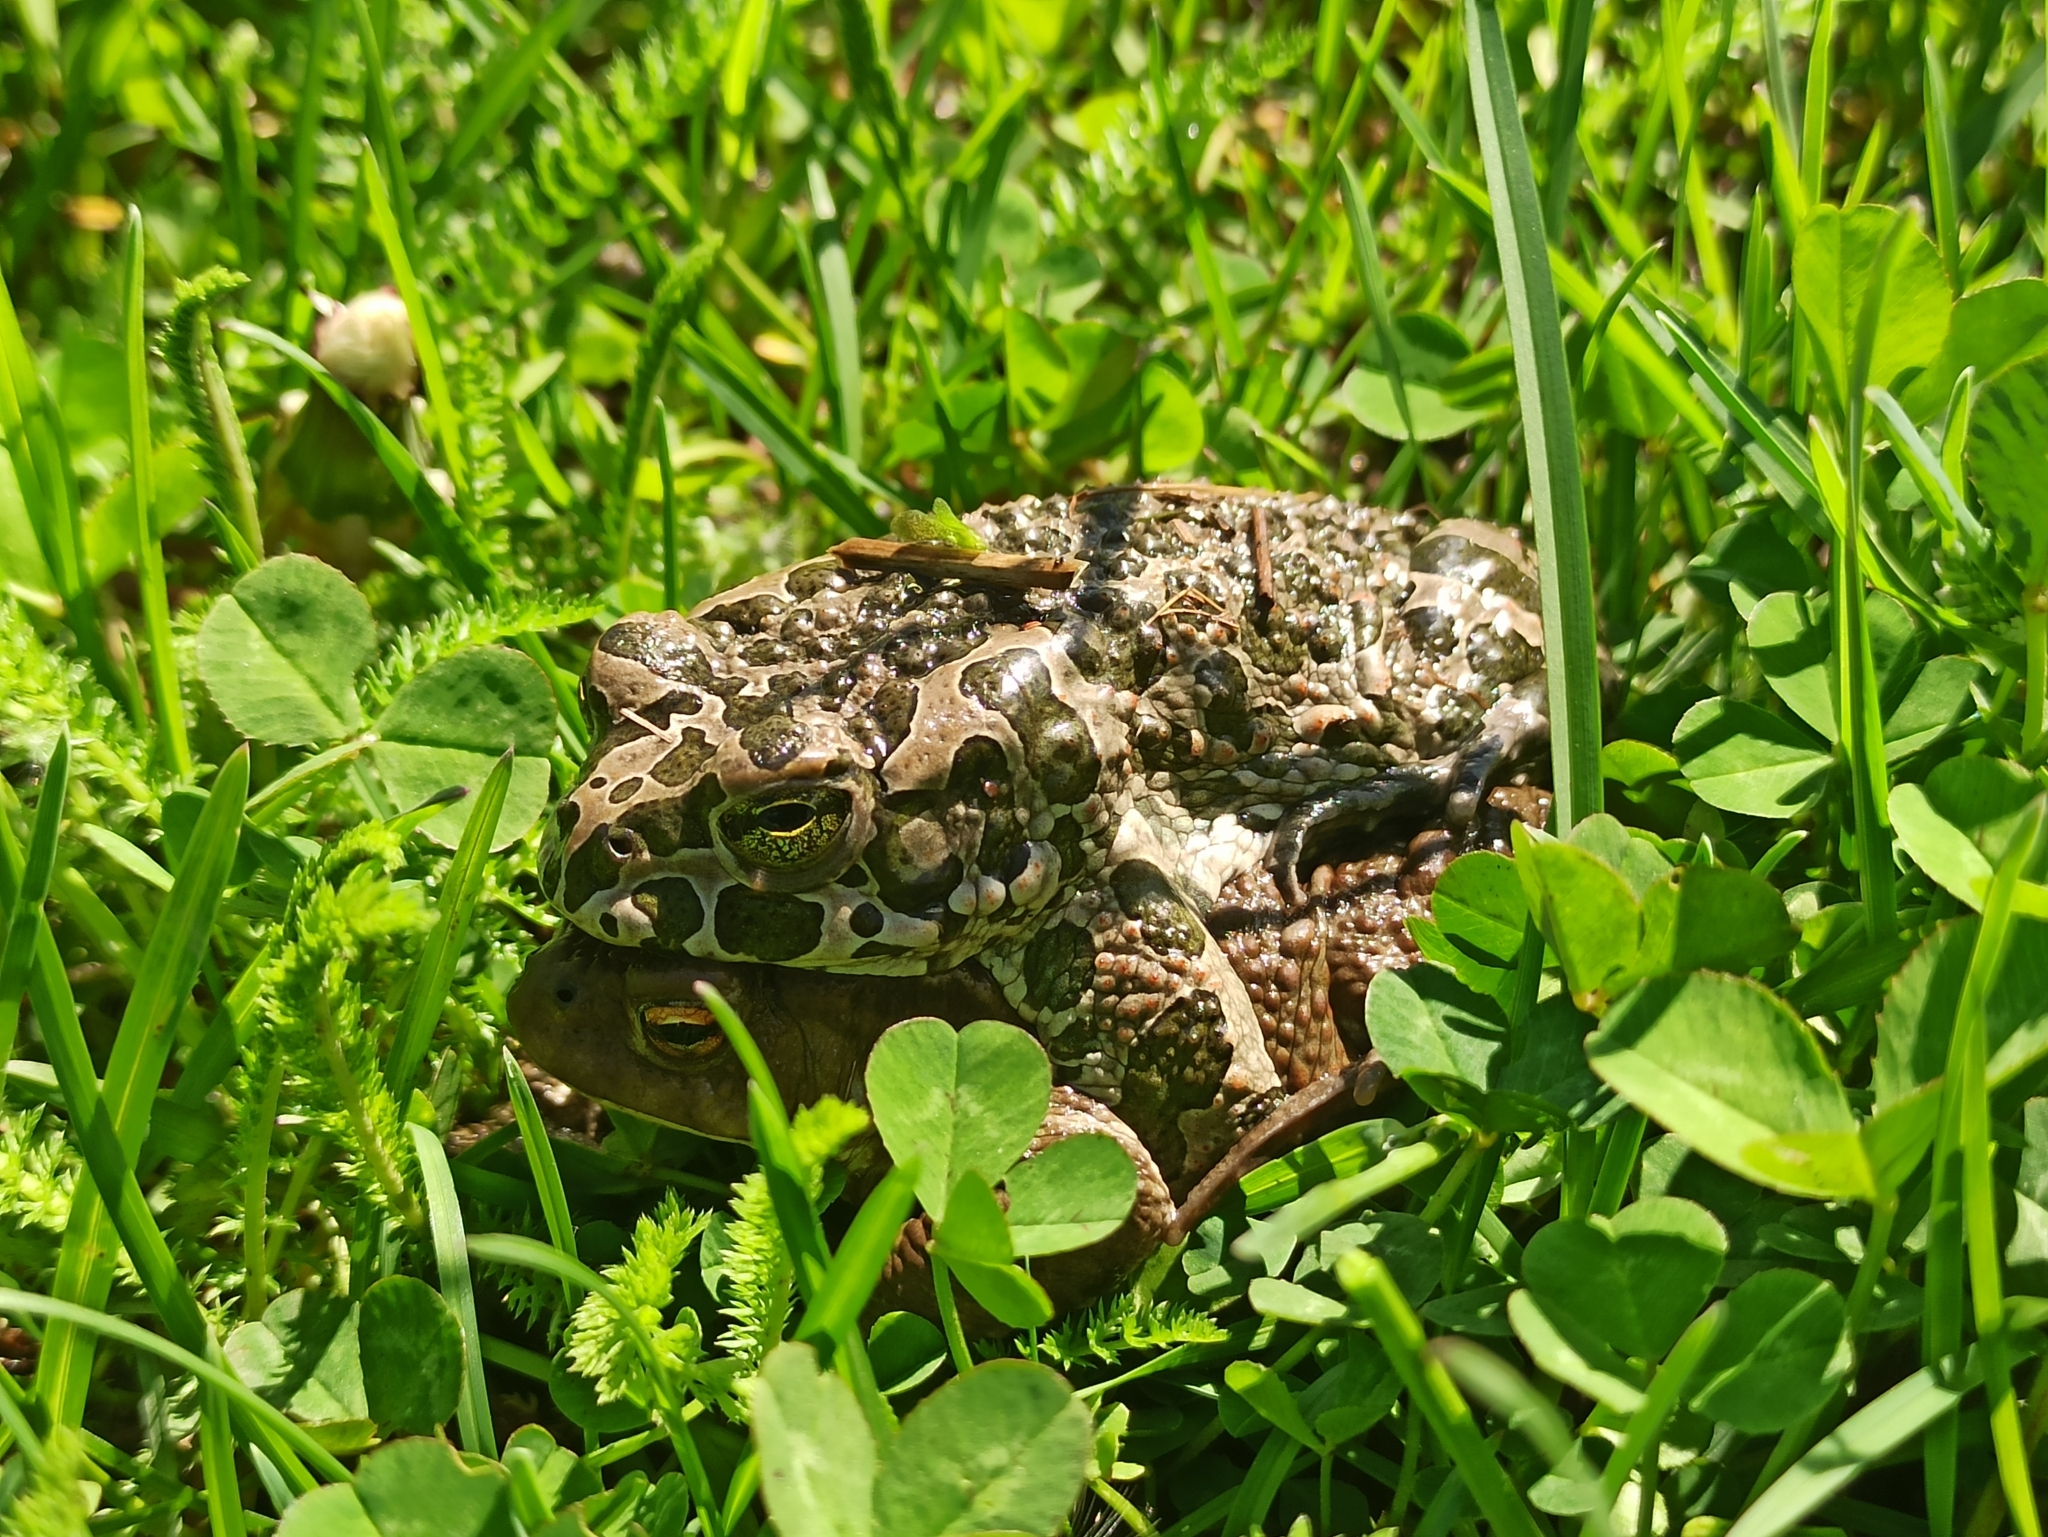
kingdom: Animalia
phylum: Chordata
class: Amphibia
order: Anura
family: Bufonidae
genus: Bufotes
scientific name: Bufotes viridis
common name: European green toad
